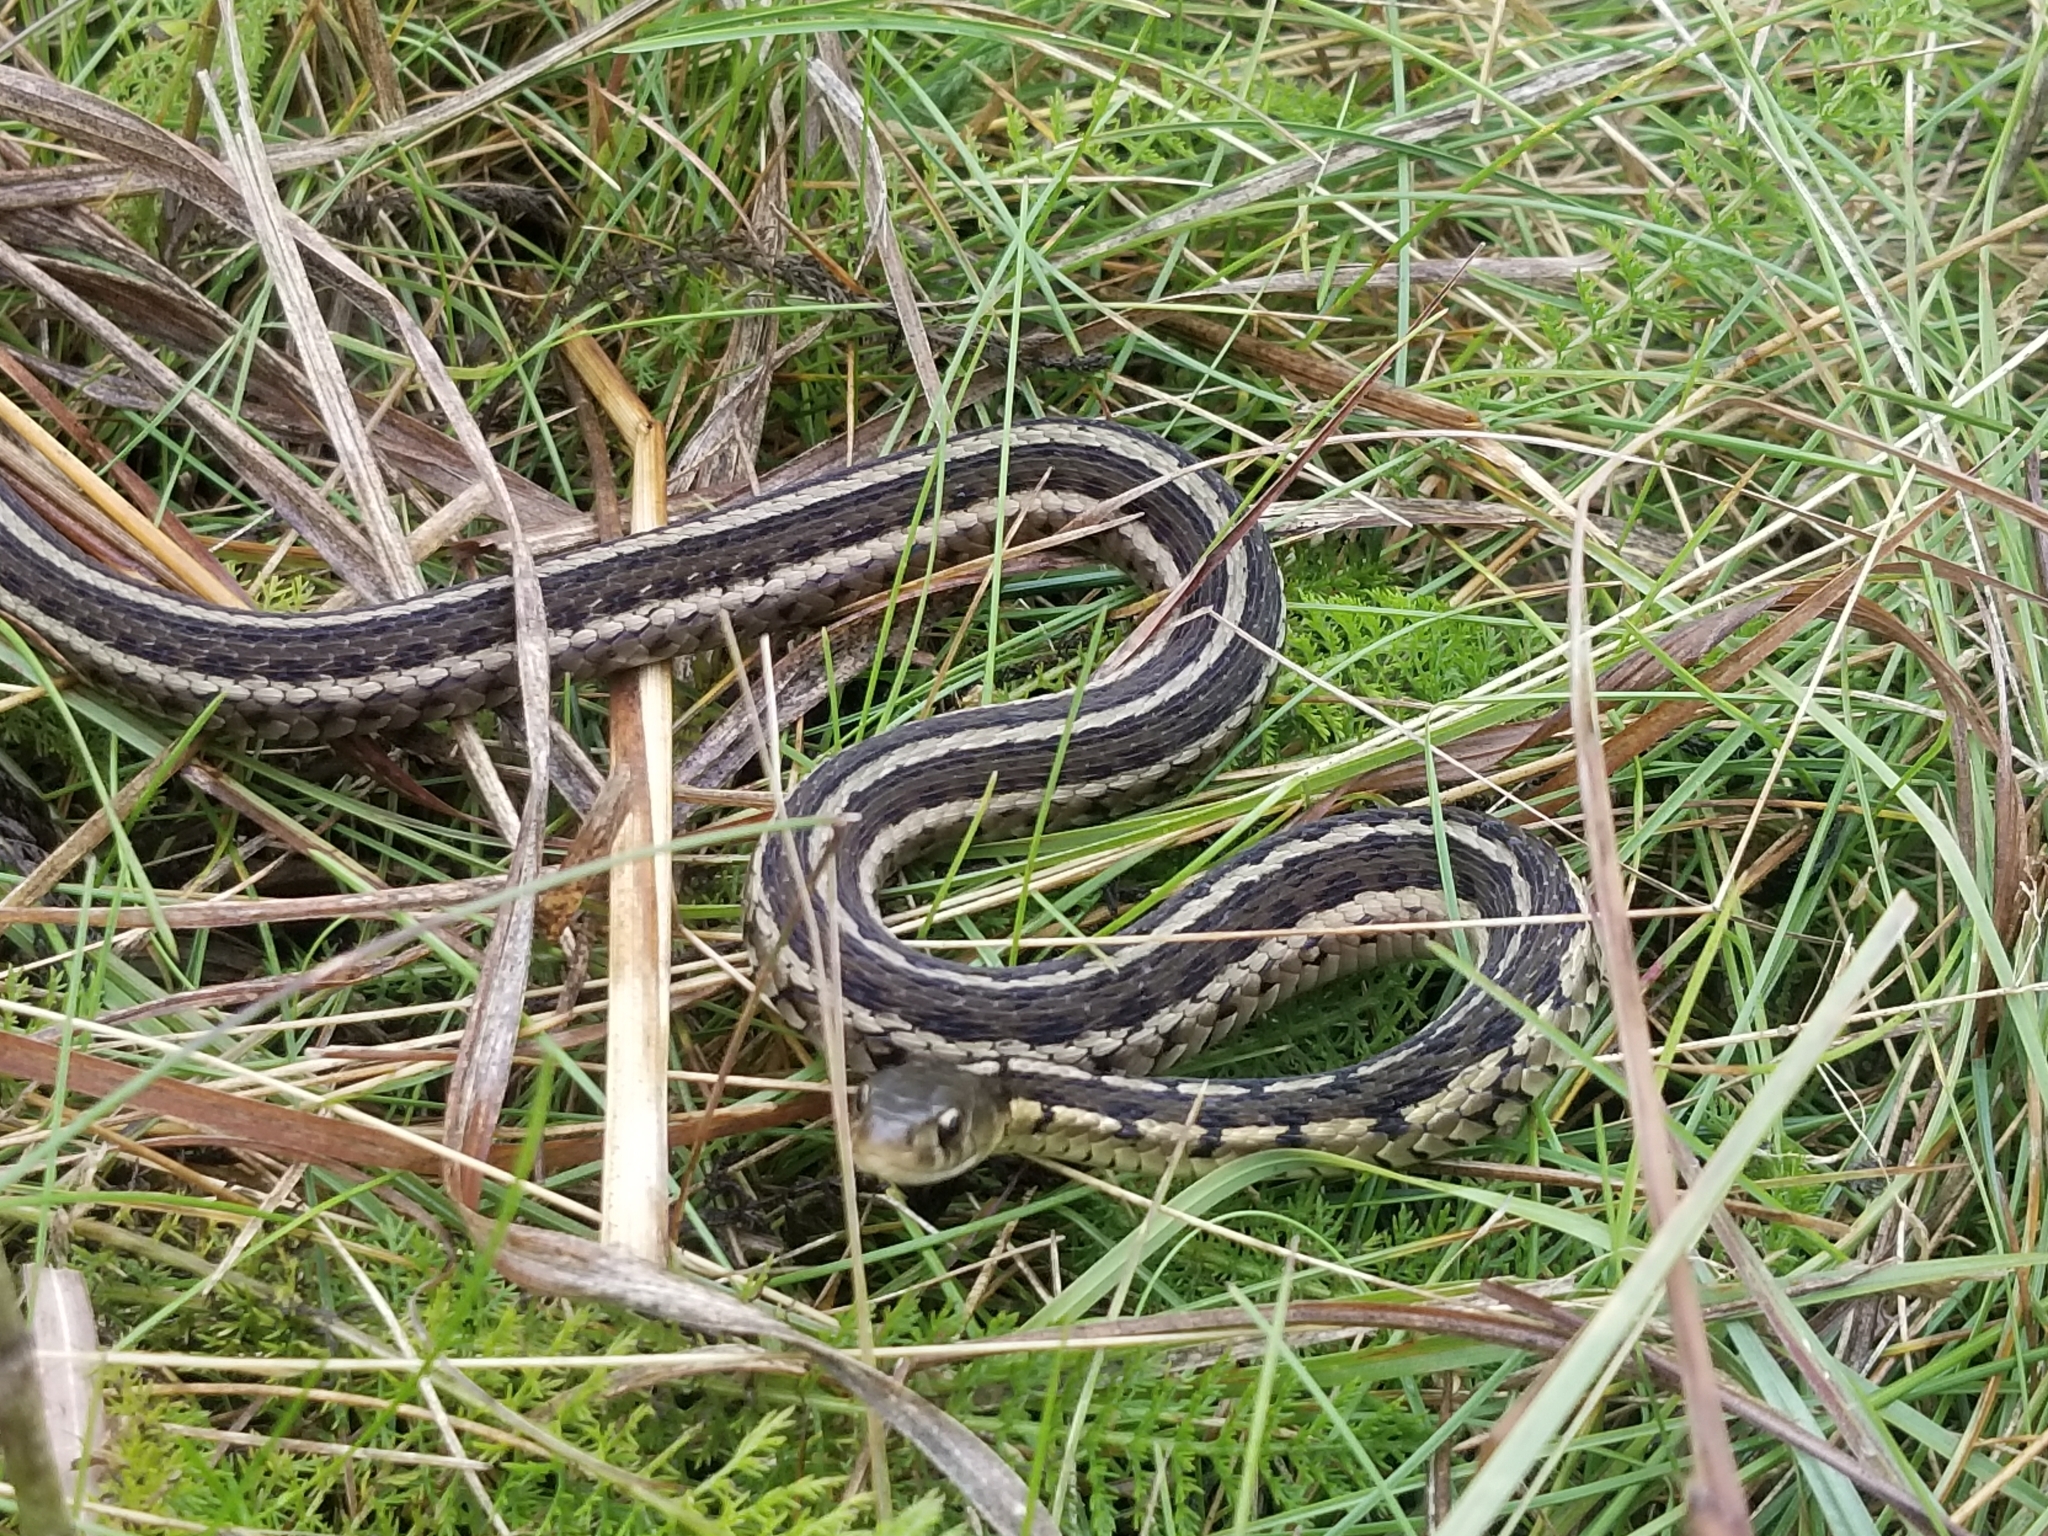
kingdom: Animalia
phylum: Chordata
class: Squamata
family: Colubridae
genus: Thamnophis
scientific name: Thamnophis sirtalis
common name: Common garter snake
